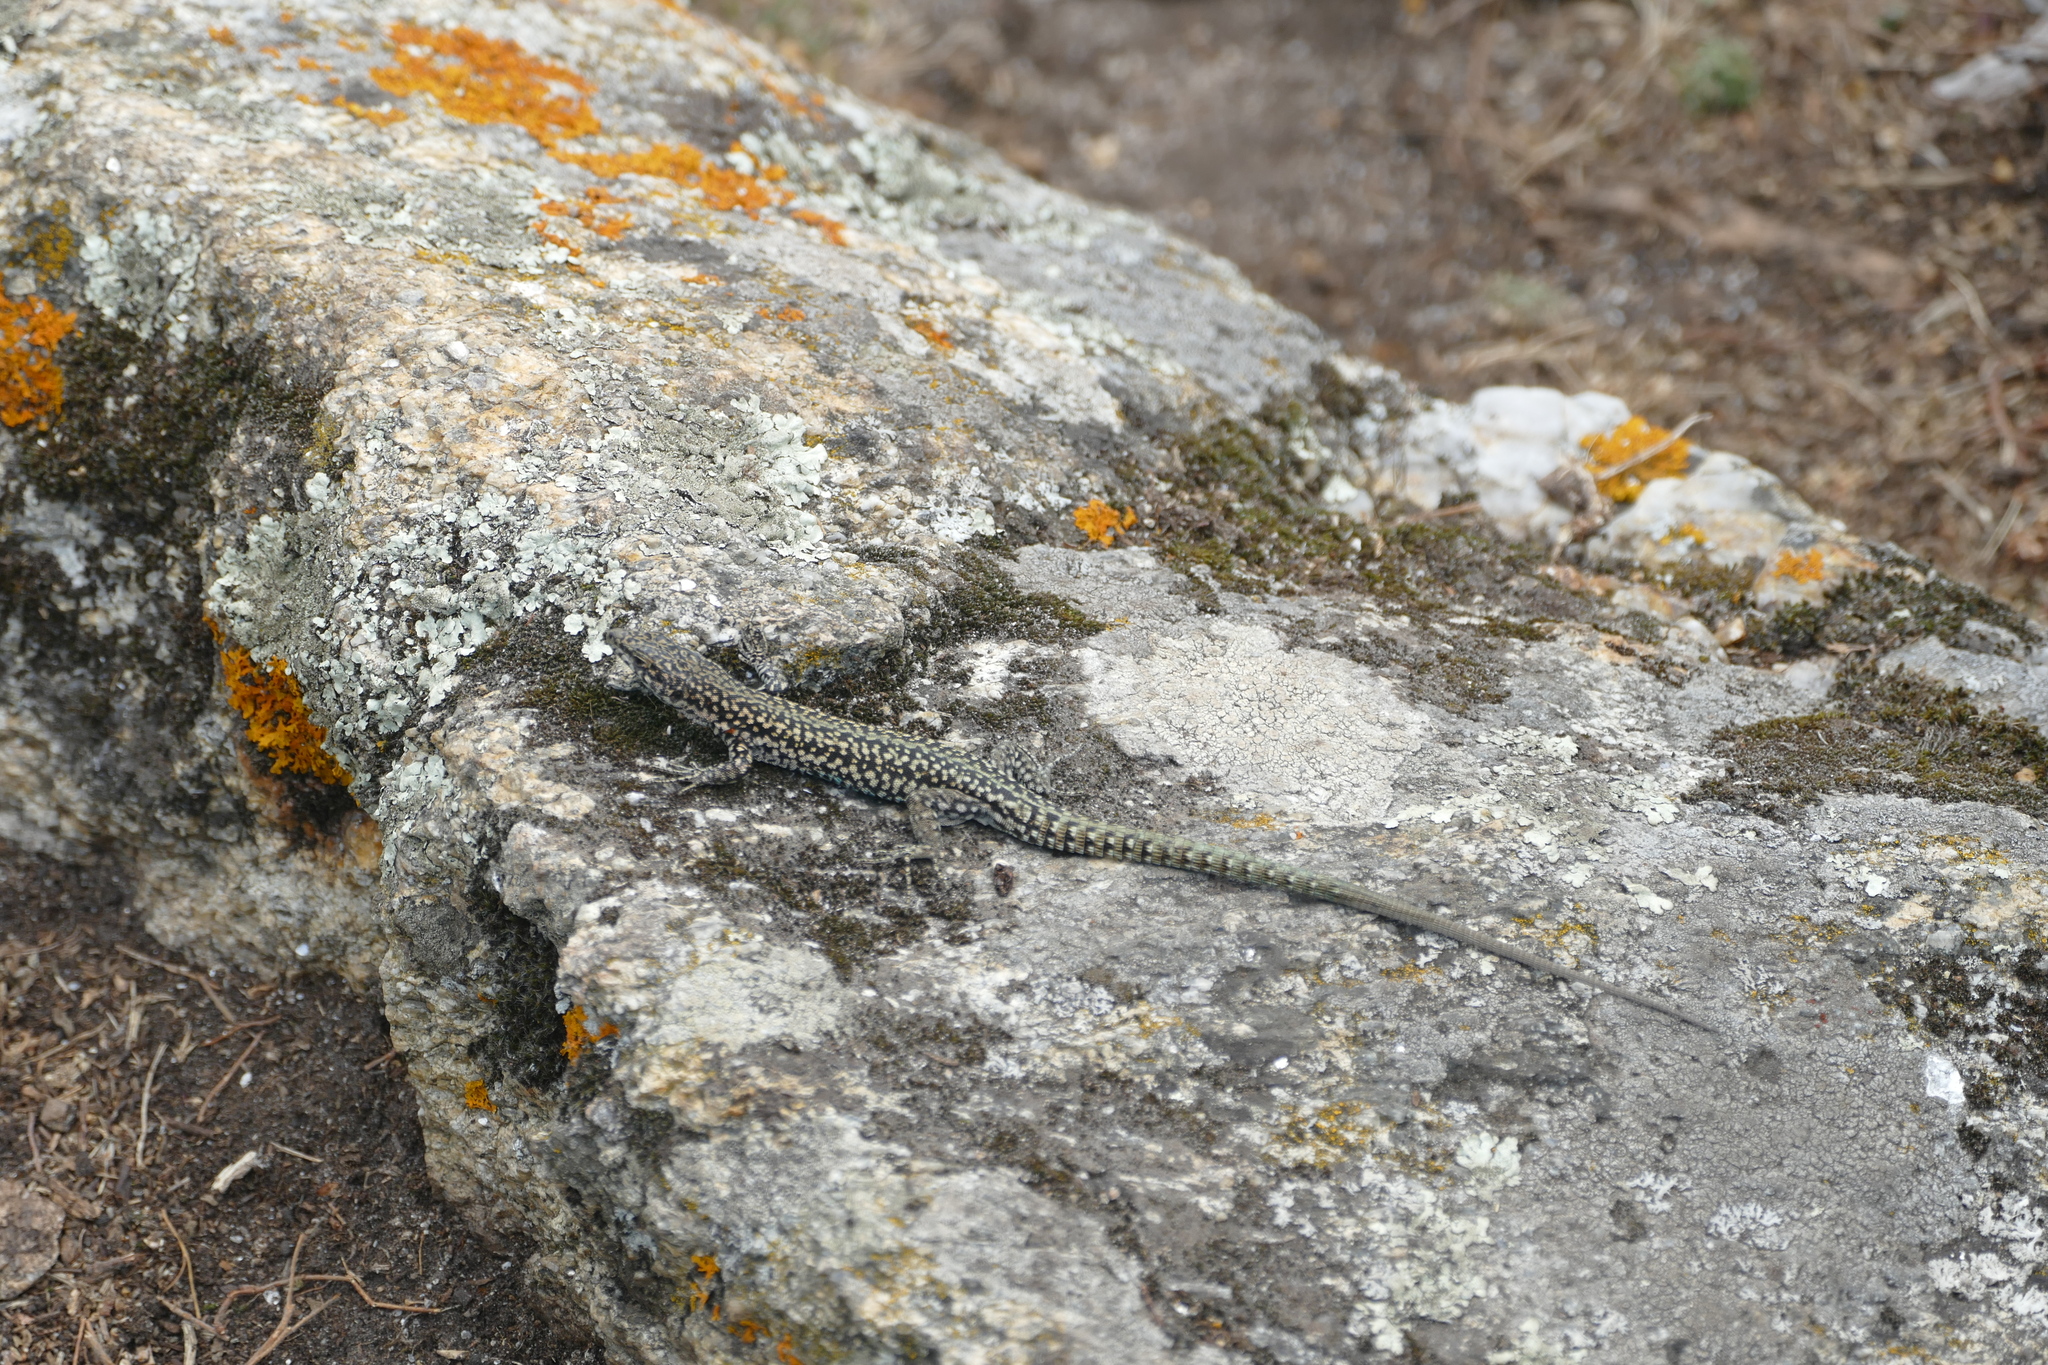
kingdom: Animalia
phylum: Chordata
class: Squamata
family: Lacertidae
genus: Podarcis
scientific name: Podarcis
